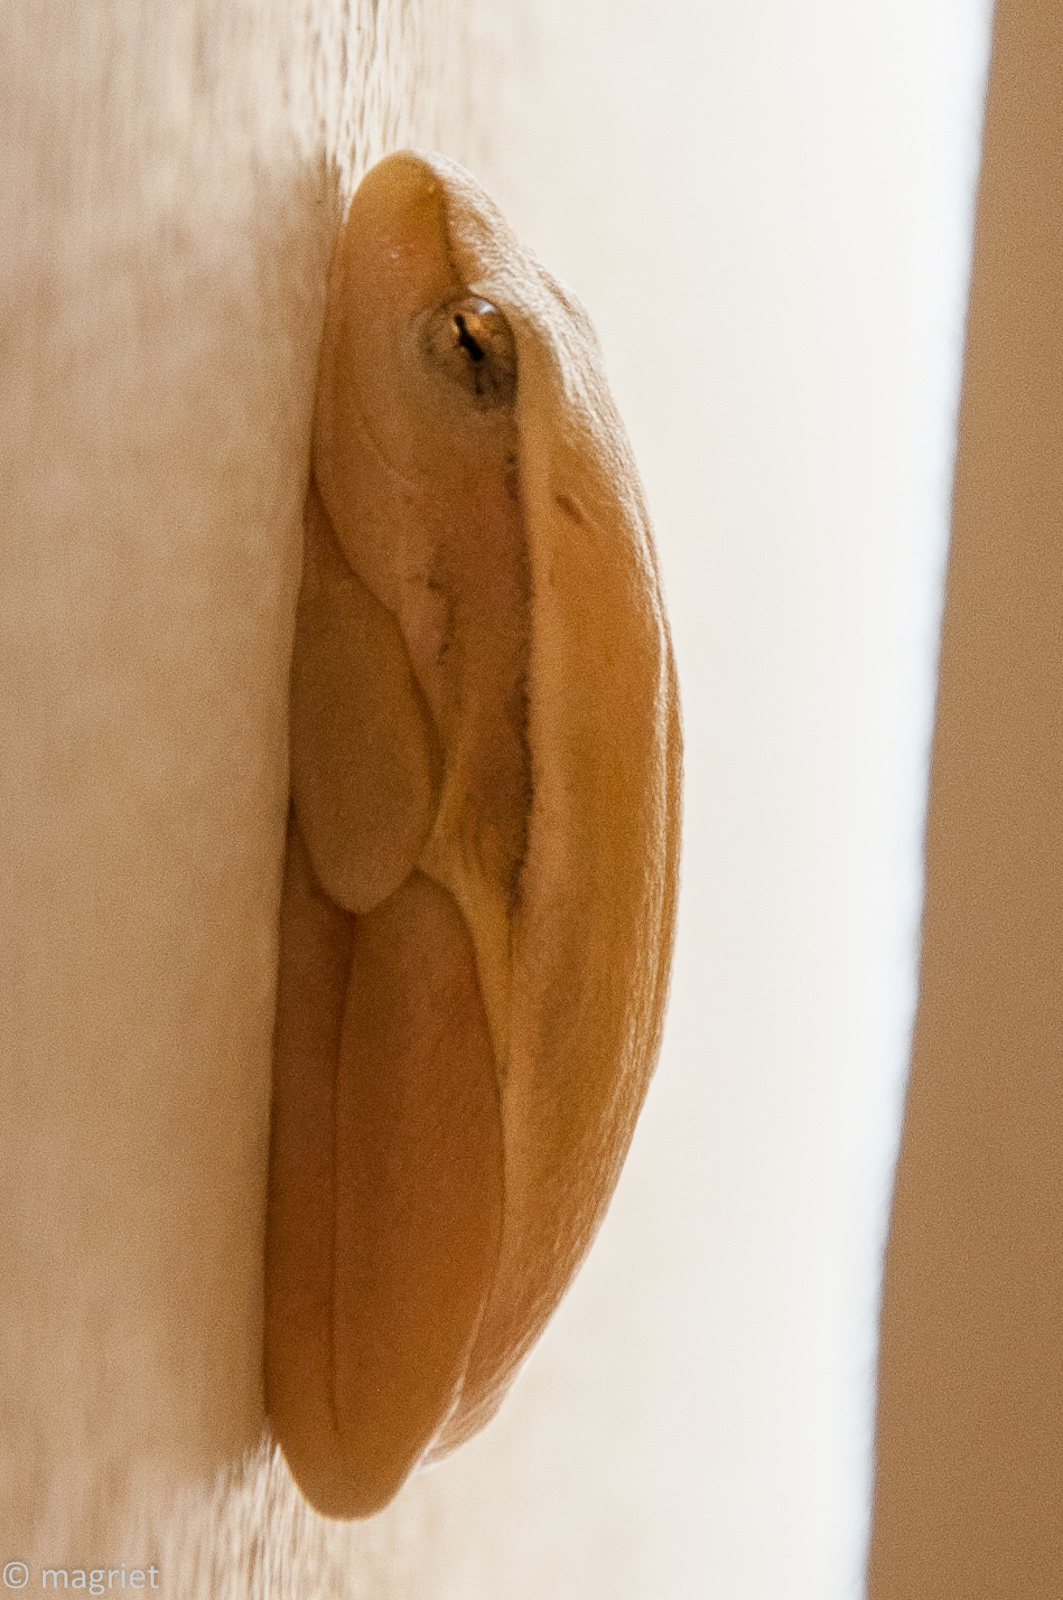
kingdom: Animalia
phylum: Chordata
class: Amphibia
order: Anura
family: Hyperoliidae
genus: Hyperolius
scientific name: Hyperolius horstockii
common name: Arum lily frog
